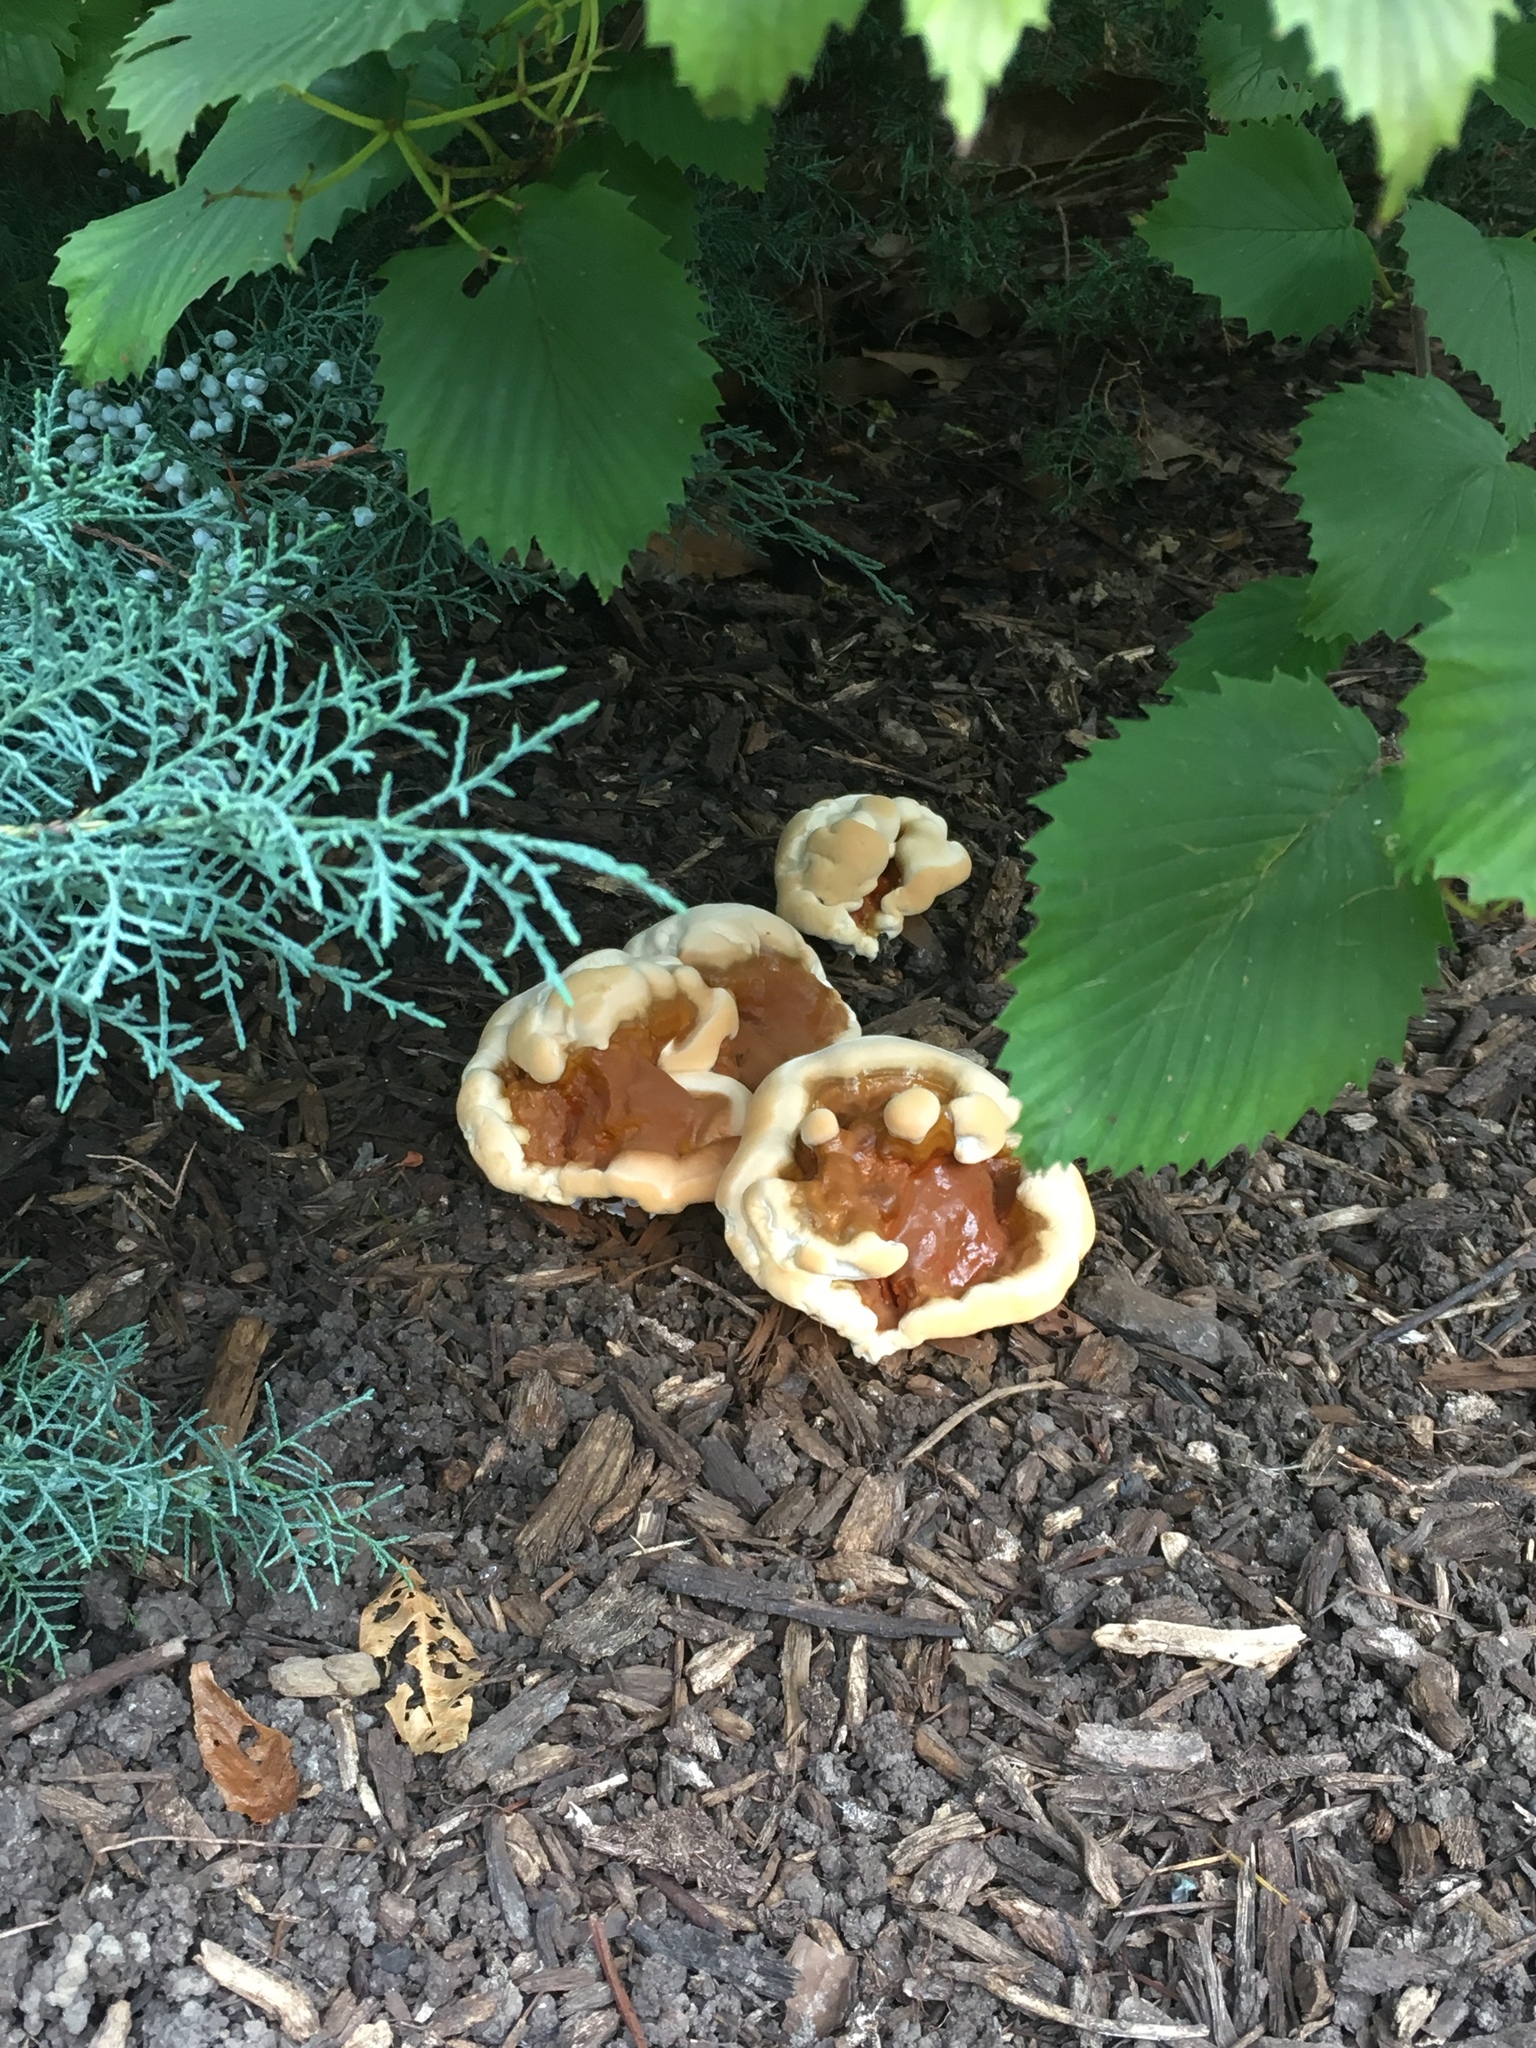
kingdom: Fungi
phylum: Basidiomycota
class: Agaricomycetes
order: Polyporales
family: Polyporaceae
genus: Ganoderma
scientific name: Ganoderma resinaceum
